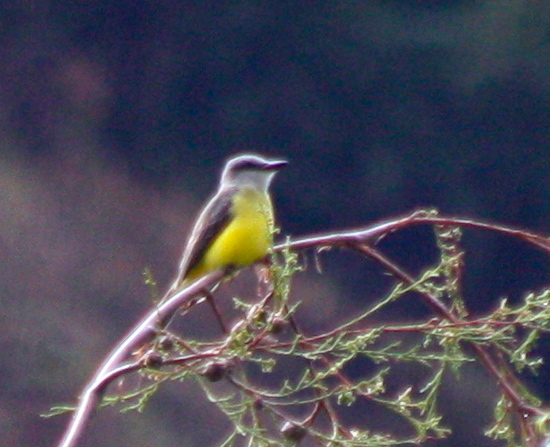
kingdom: Animalia
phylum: Chordata
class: Aves
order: Passeriformes
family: Tyrannidae
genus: Tyrannus
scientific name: Tyrannus melancholicus
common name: Tropical kingbird
